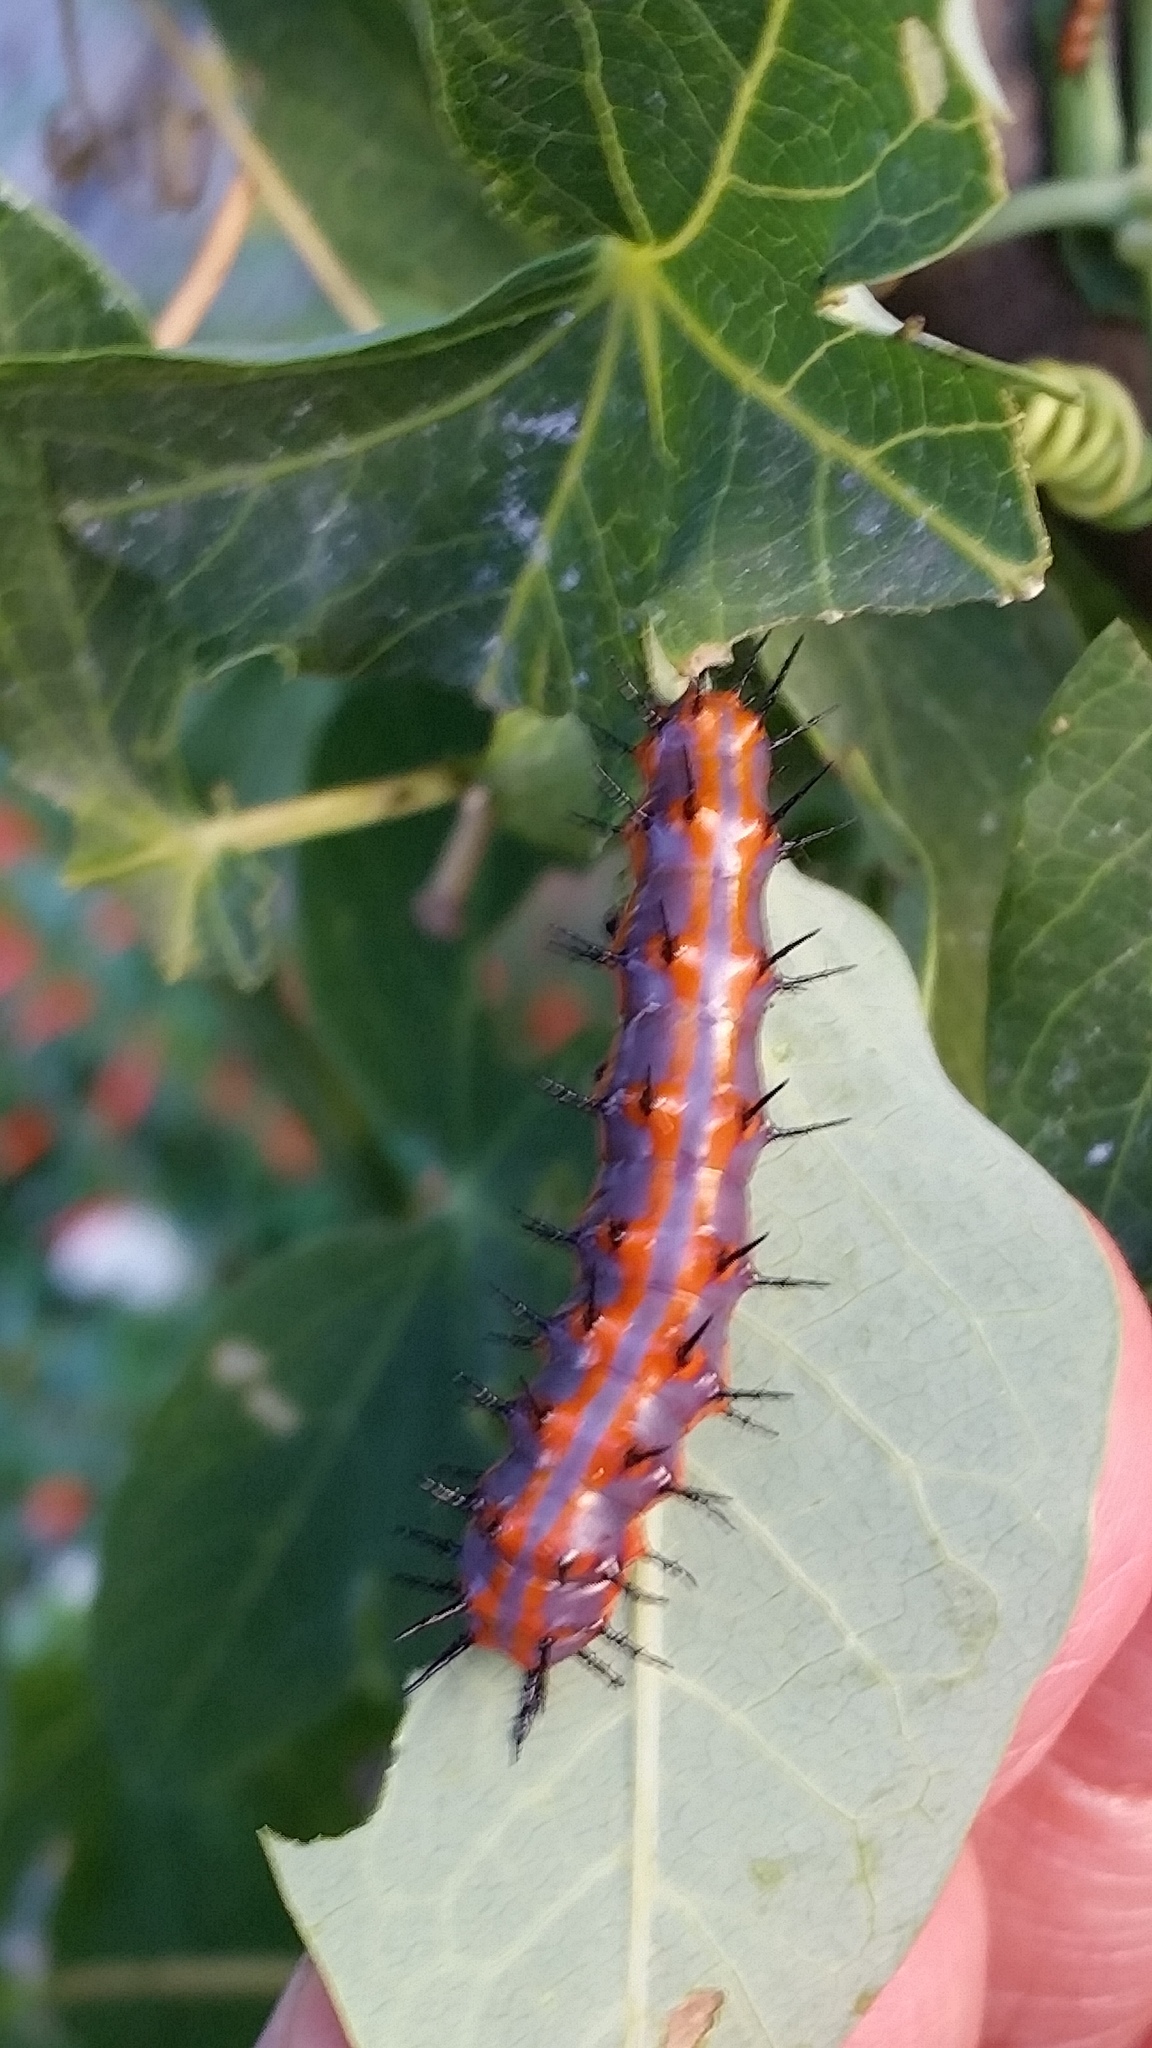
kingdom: Animalia
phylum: Arthropoda
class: Insecta
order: Lepidoptera
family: Nymphalidae
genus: Dione
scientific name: Dione vanillae
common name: Gulf fritillary
